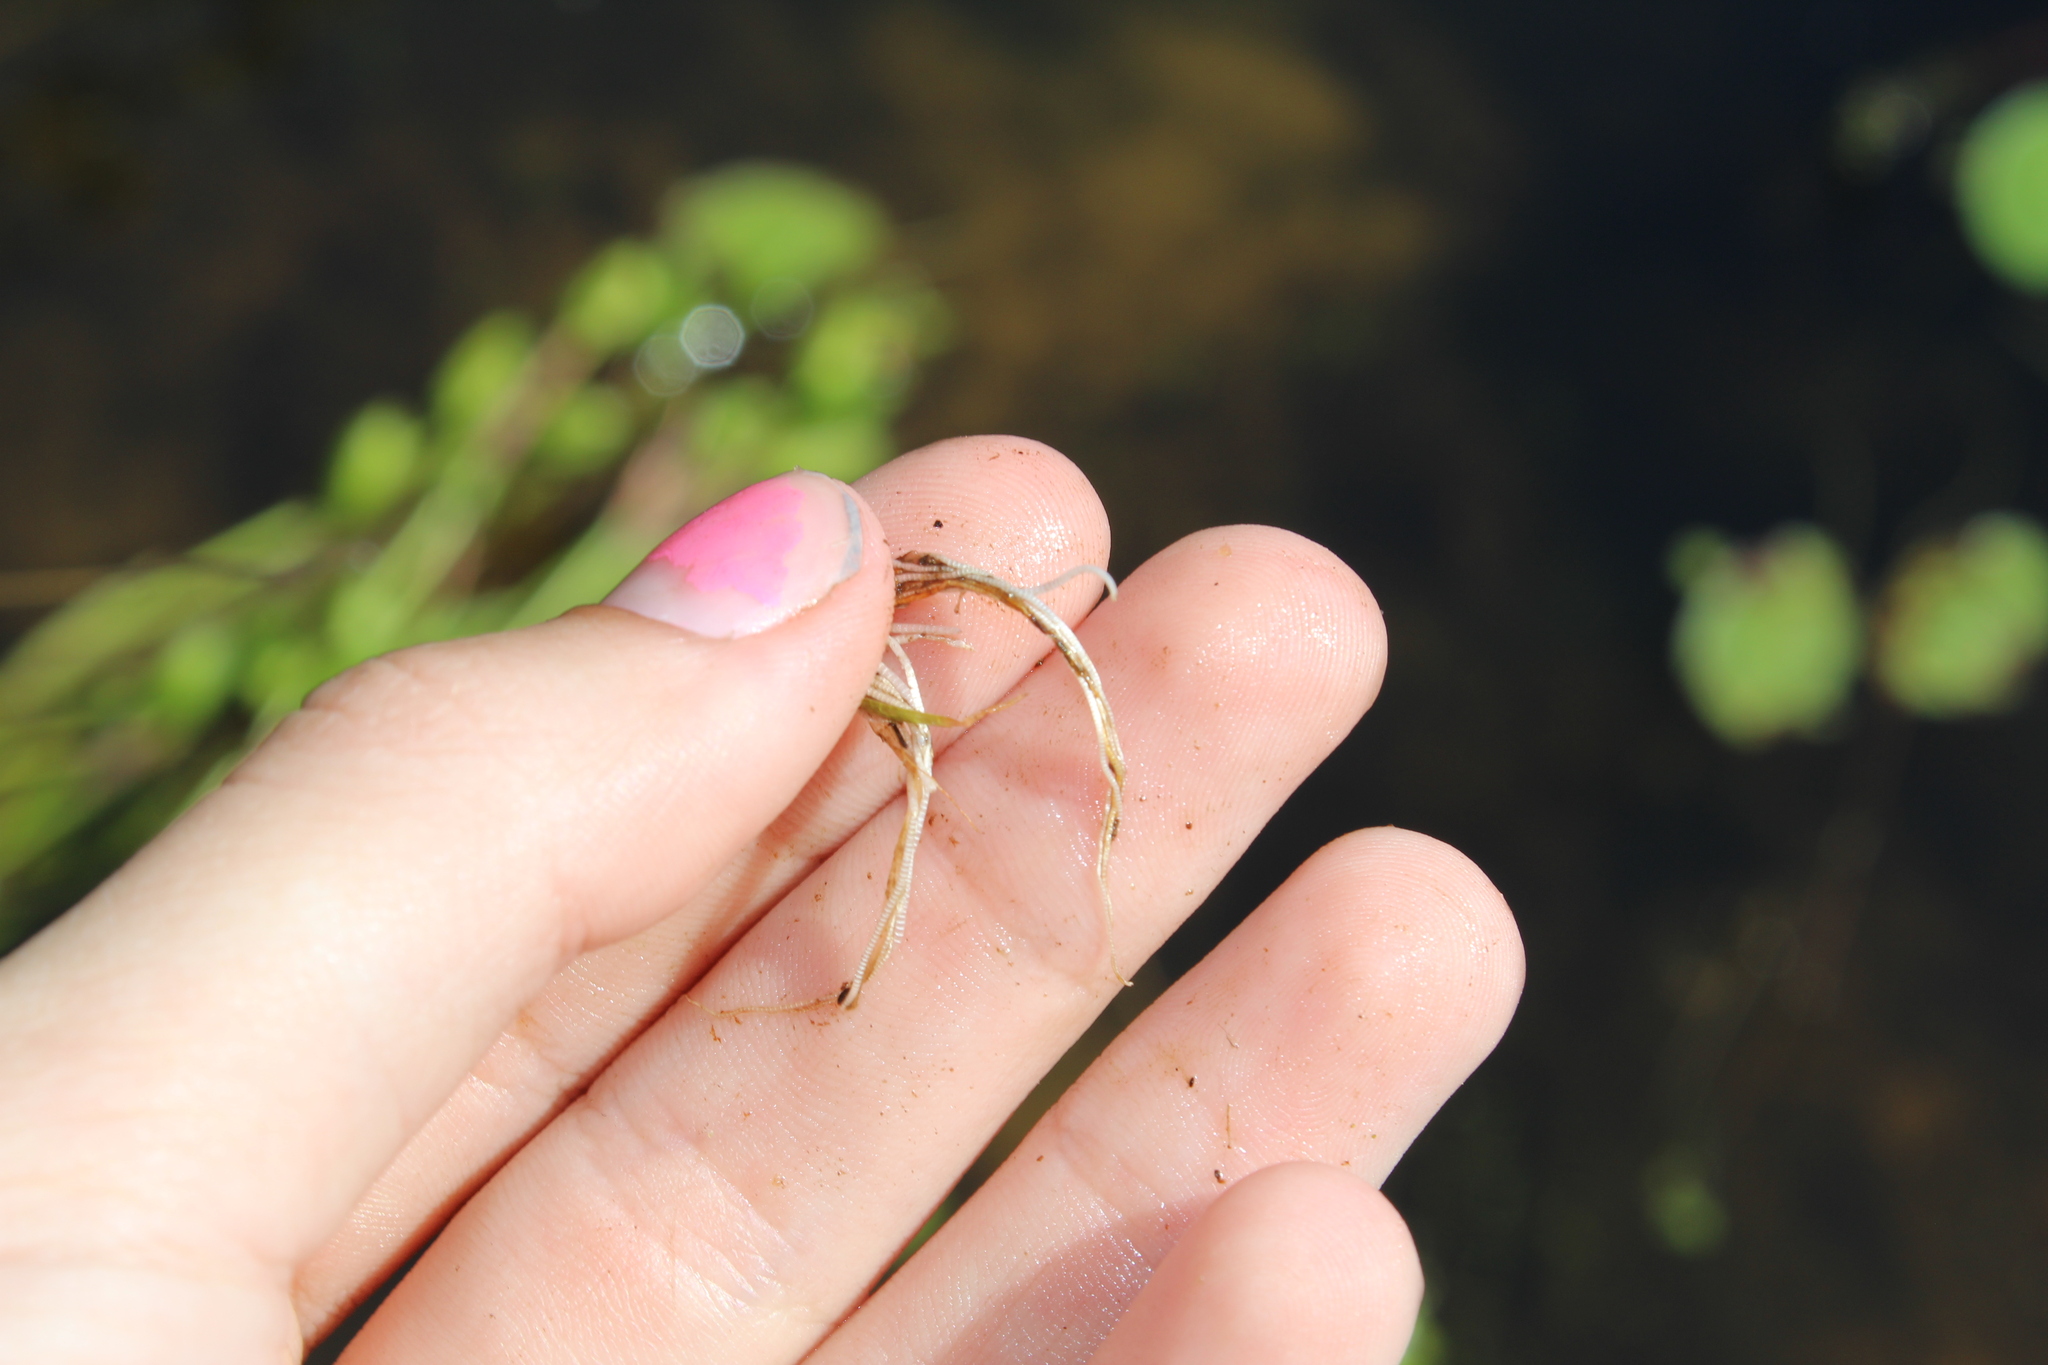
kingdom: Plantae
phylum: Tracheophyta
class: Liliopsida
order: Poales
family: Eriocaulaceae
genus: Eriocaulon
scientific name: Eriocaulon aquaticum
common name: Pipewort
